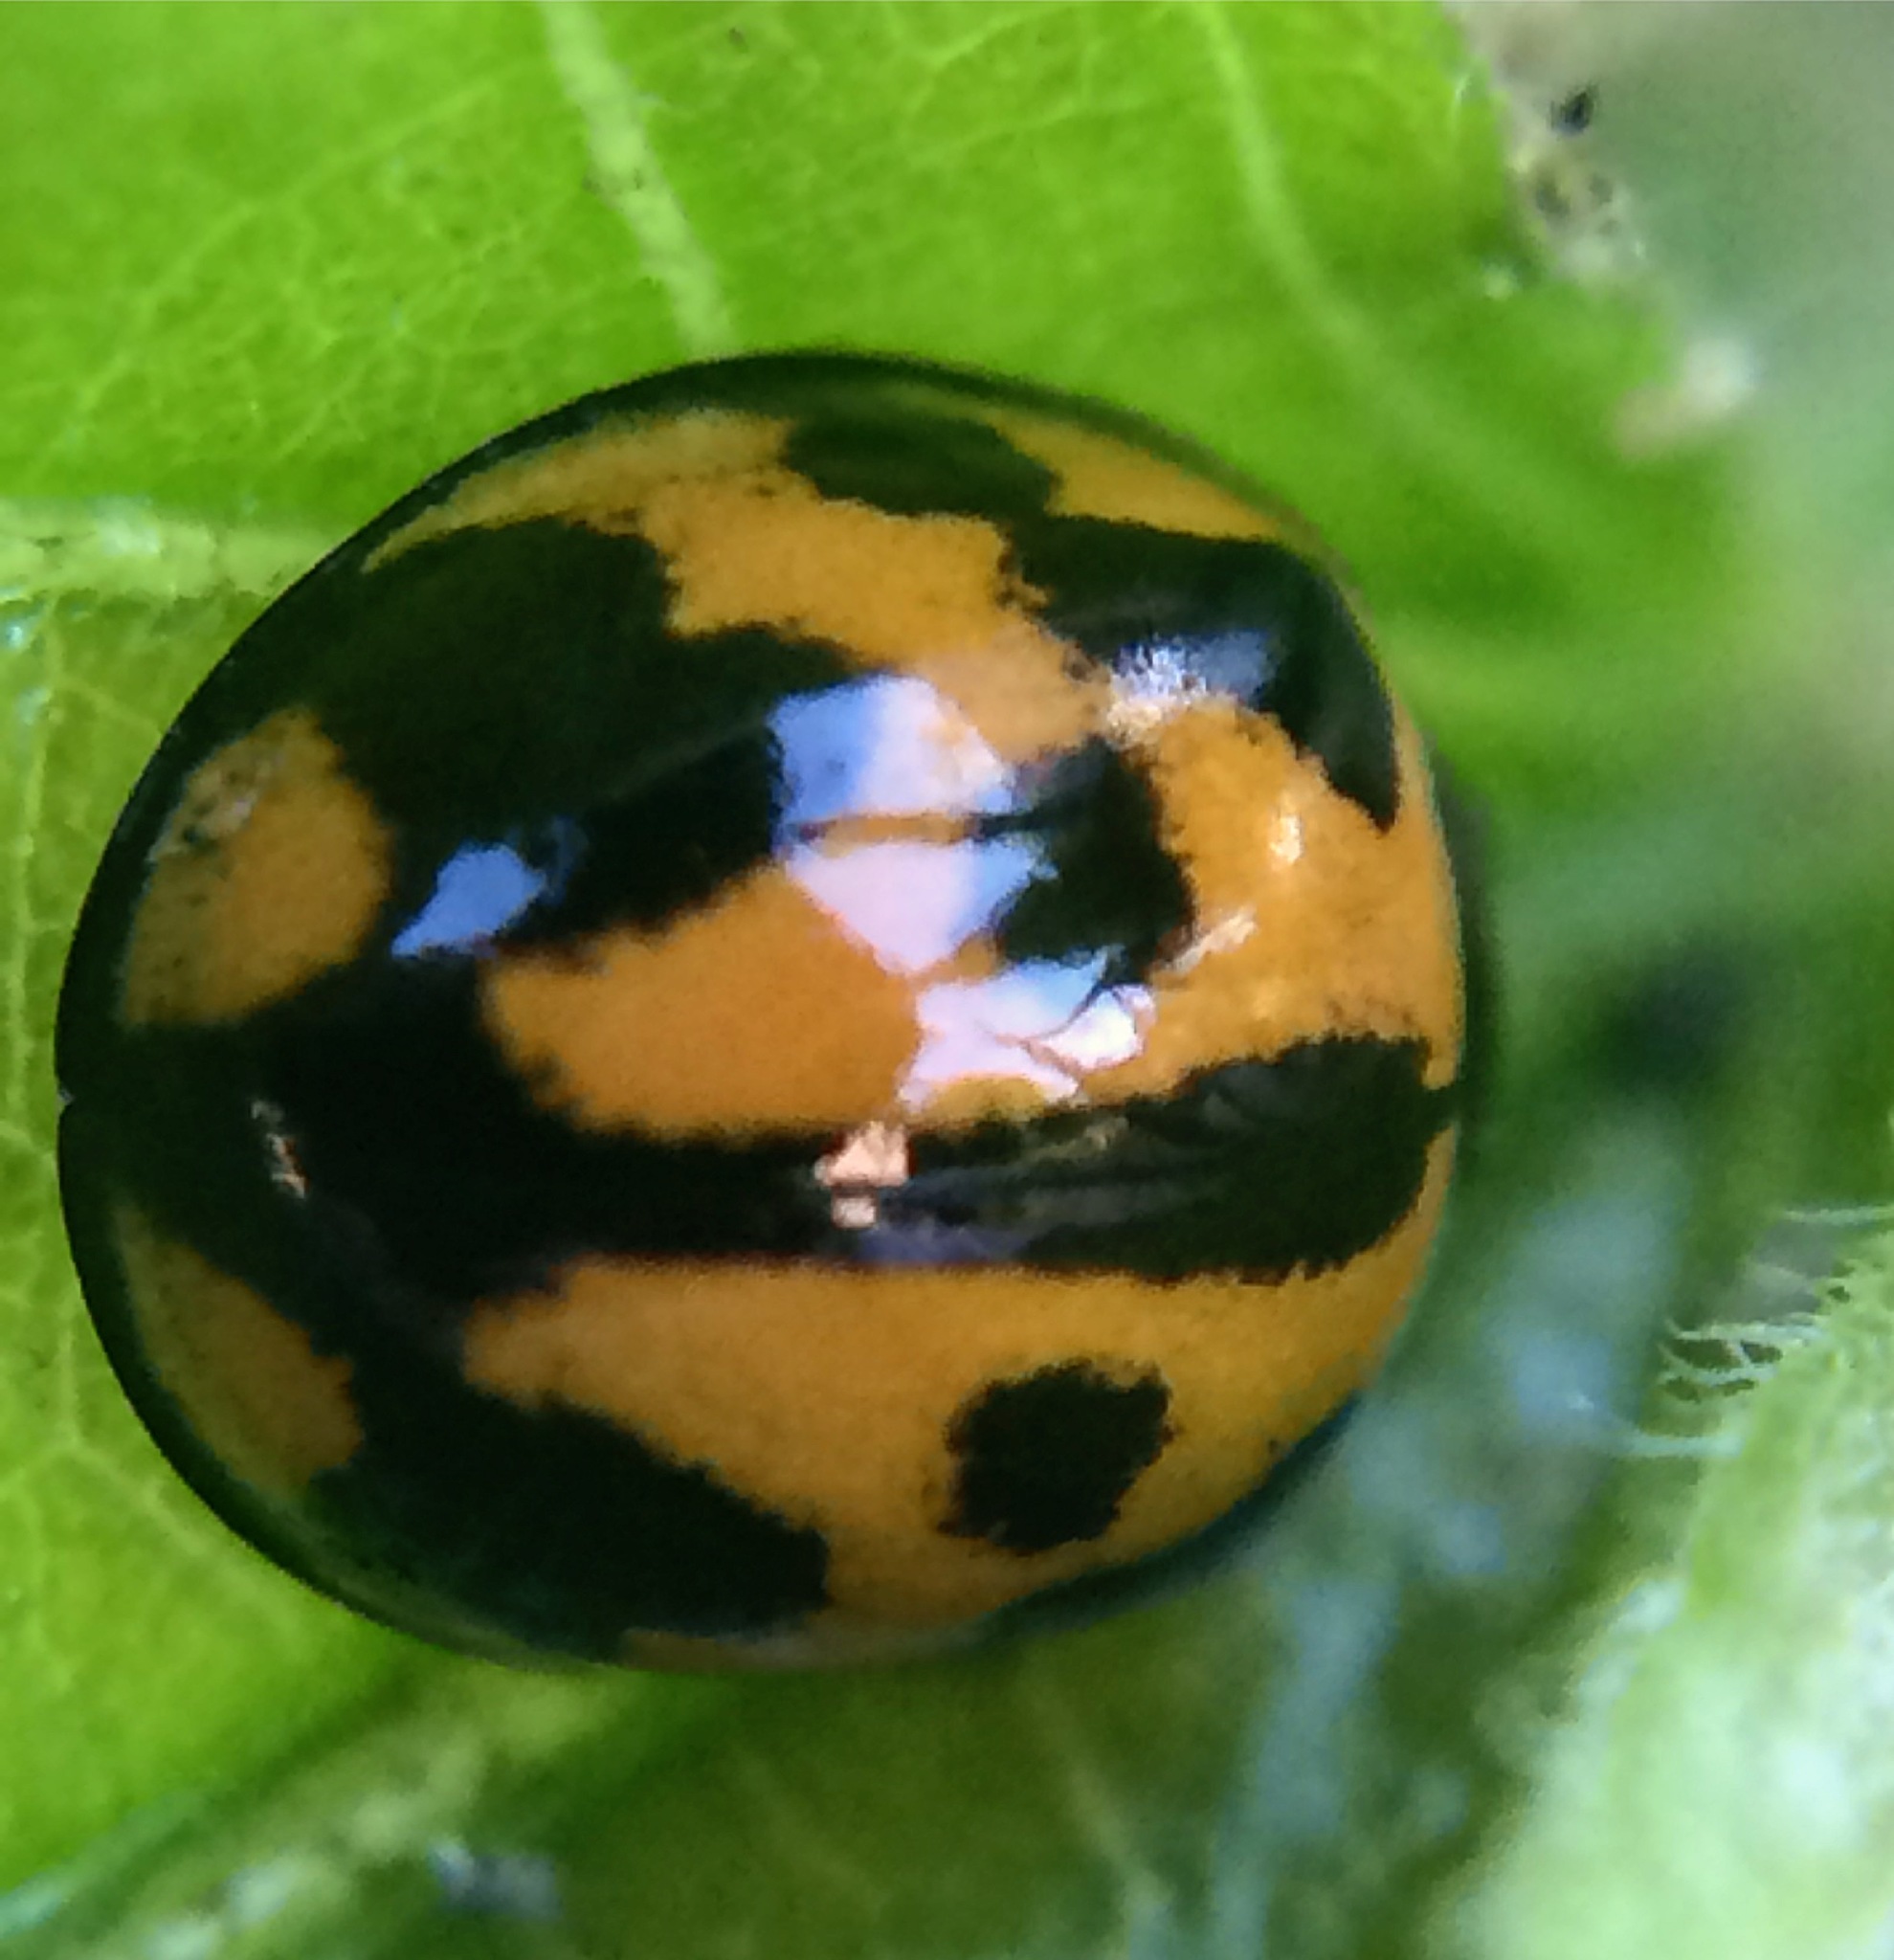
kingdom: Animalia
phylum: Arthropoda
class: Insecta
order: Coleoptera
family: Coccinellidae
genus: Coelophora
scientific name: Coelophora inaequalis
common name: Common australian lady beetle
